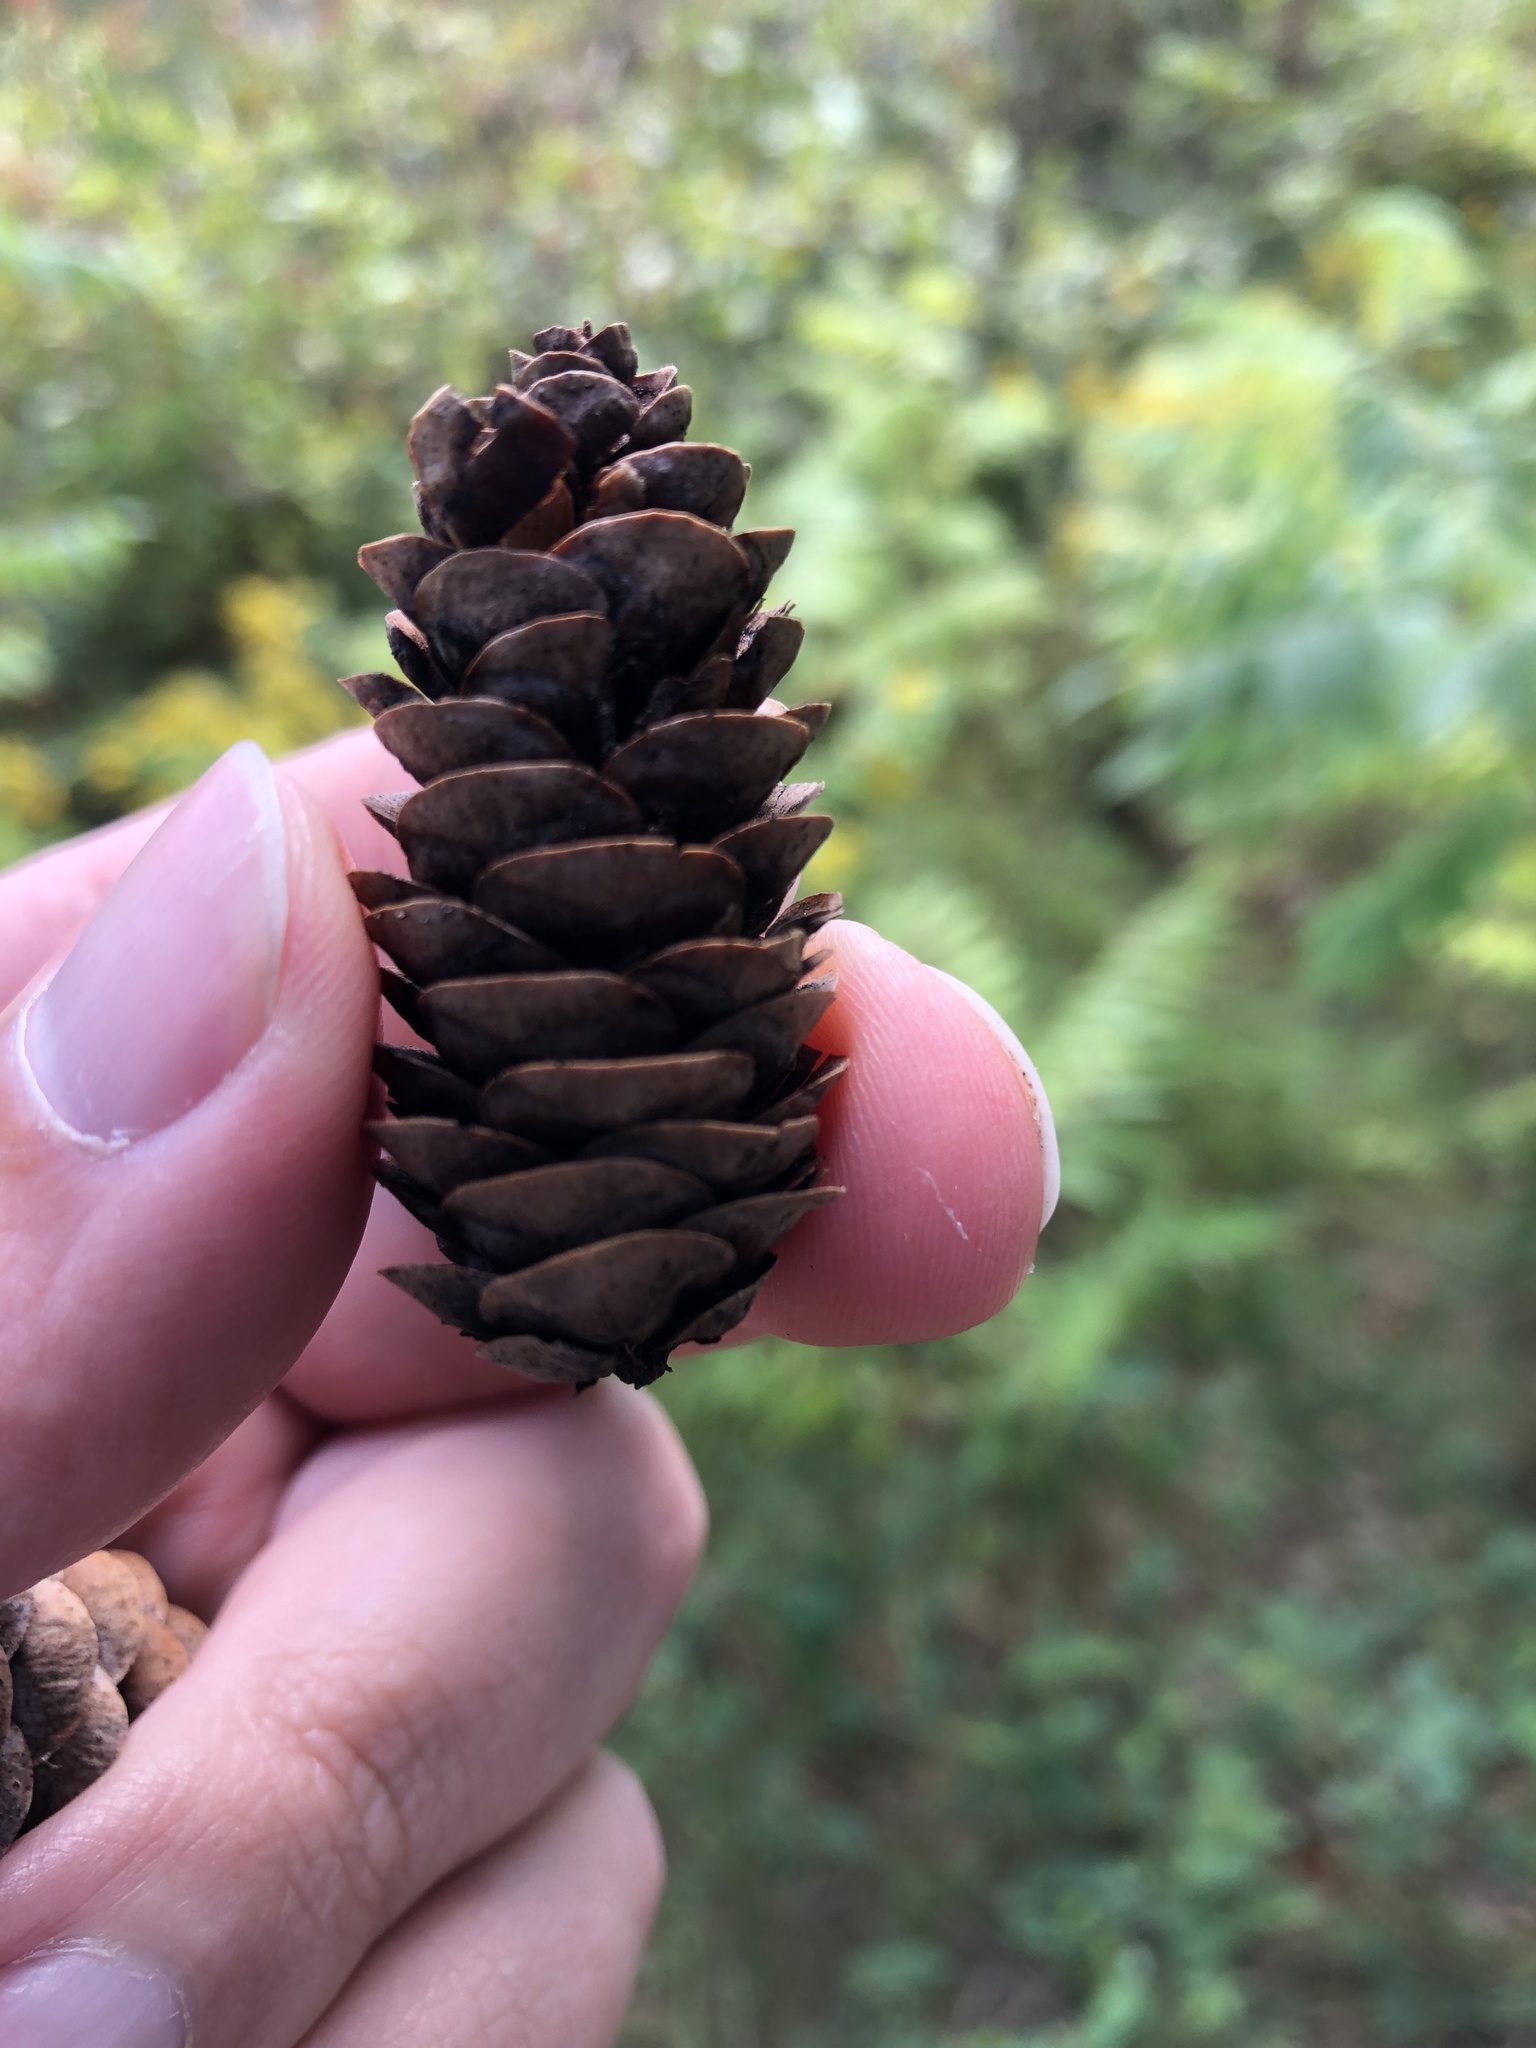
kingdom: Plantae
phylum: Tracheophyta
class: Pinopsida
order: Pinales
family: Pinaceae
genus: Picea
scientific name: Picea glauca
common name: White spruce
